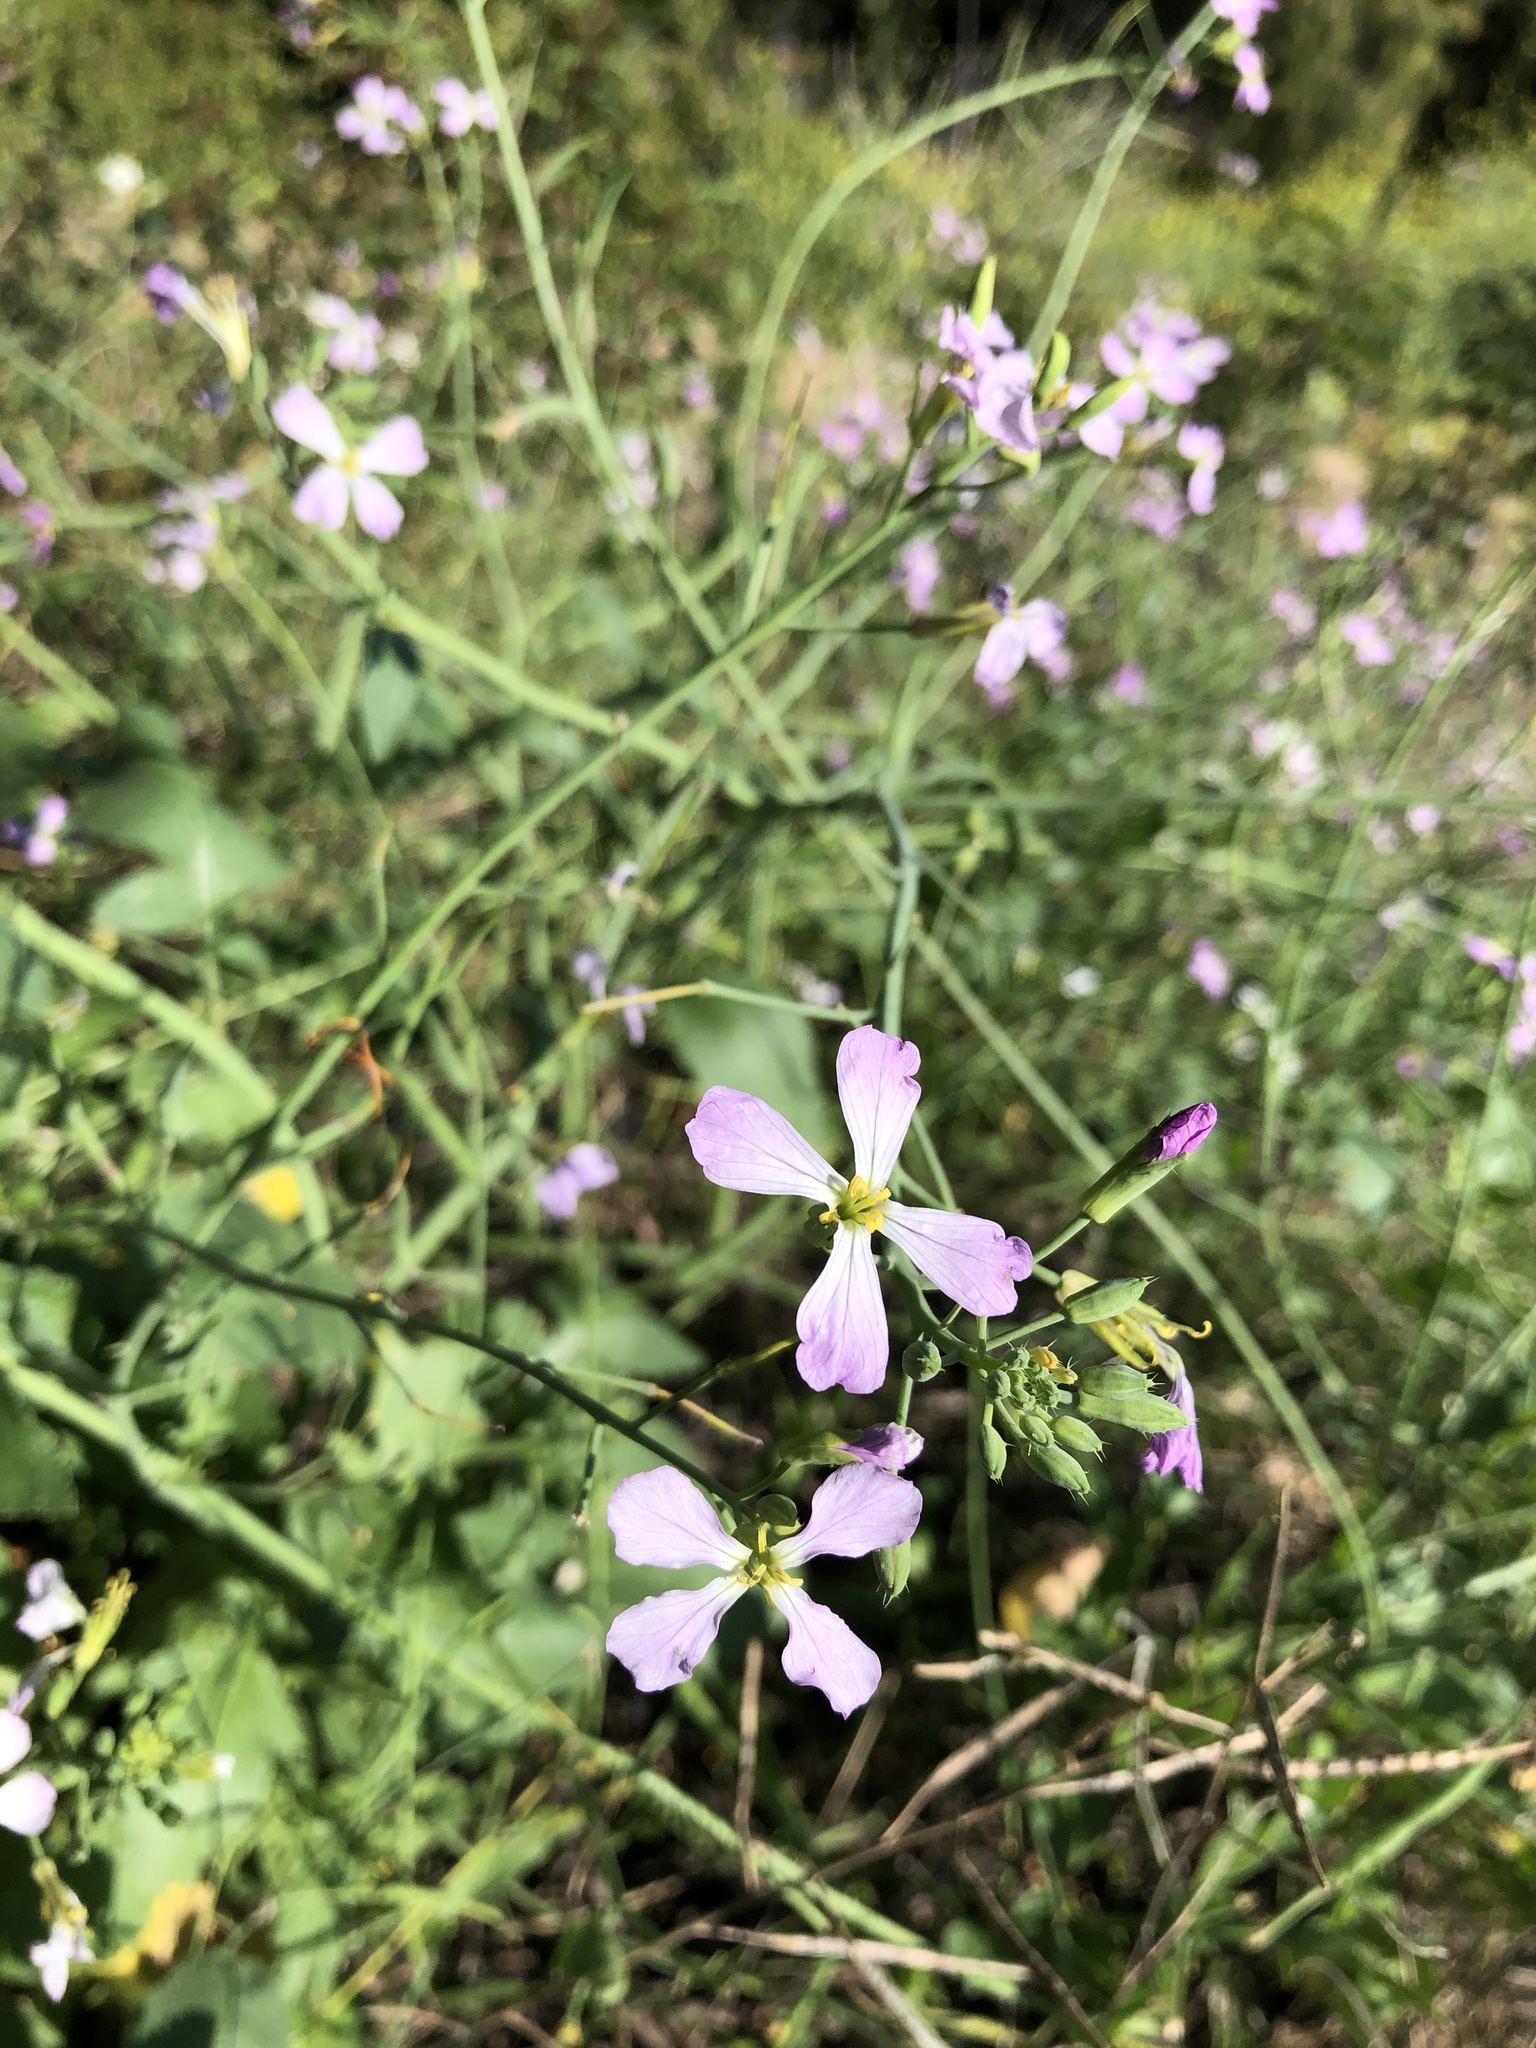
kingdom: Plantae
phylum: Tracheophyta
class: Magnoliopsida
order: Brassicales
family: Brassicaceae
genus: Raphanus
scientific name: Raphanus sativus
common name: Cultivated radish
